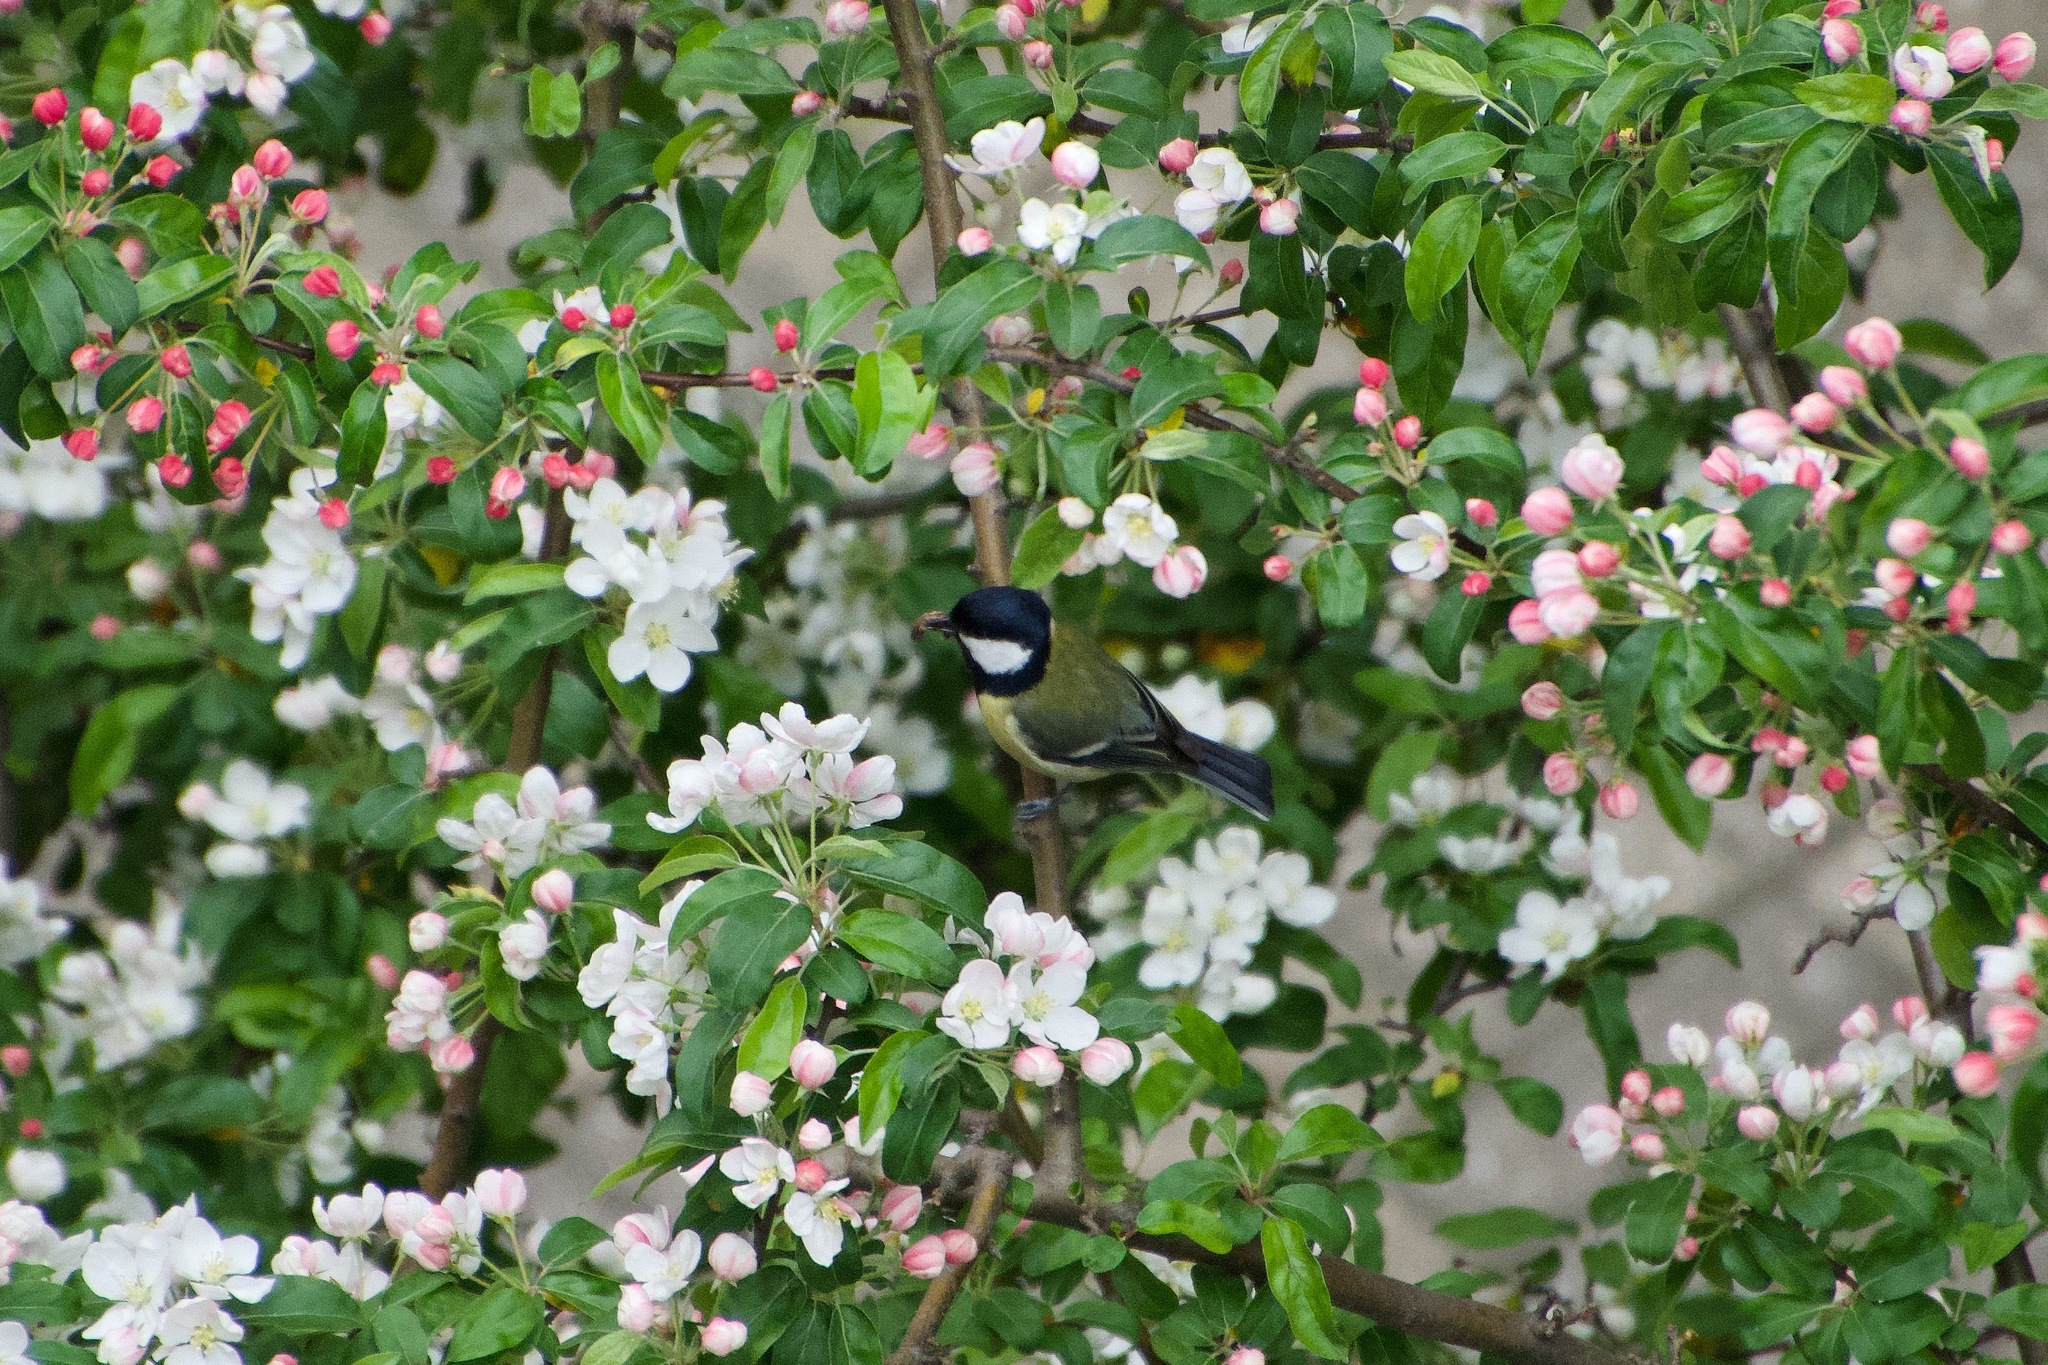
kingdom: Animalia
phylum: Chordata
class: Aves
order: Passeriformes
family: Paridae
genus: Parus
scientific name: Parus major
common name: Great tit
